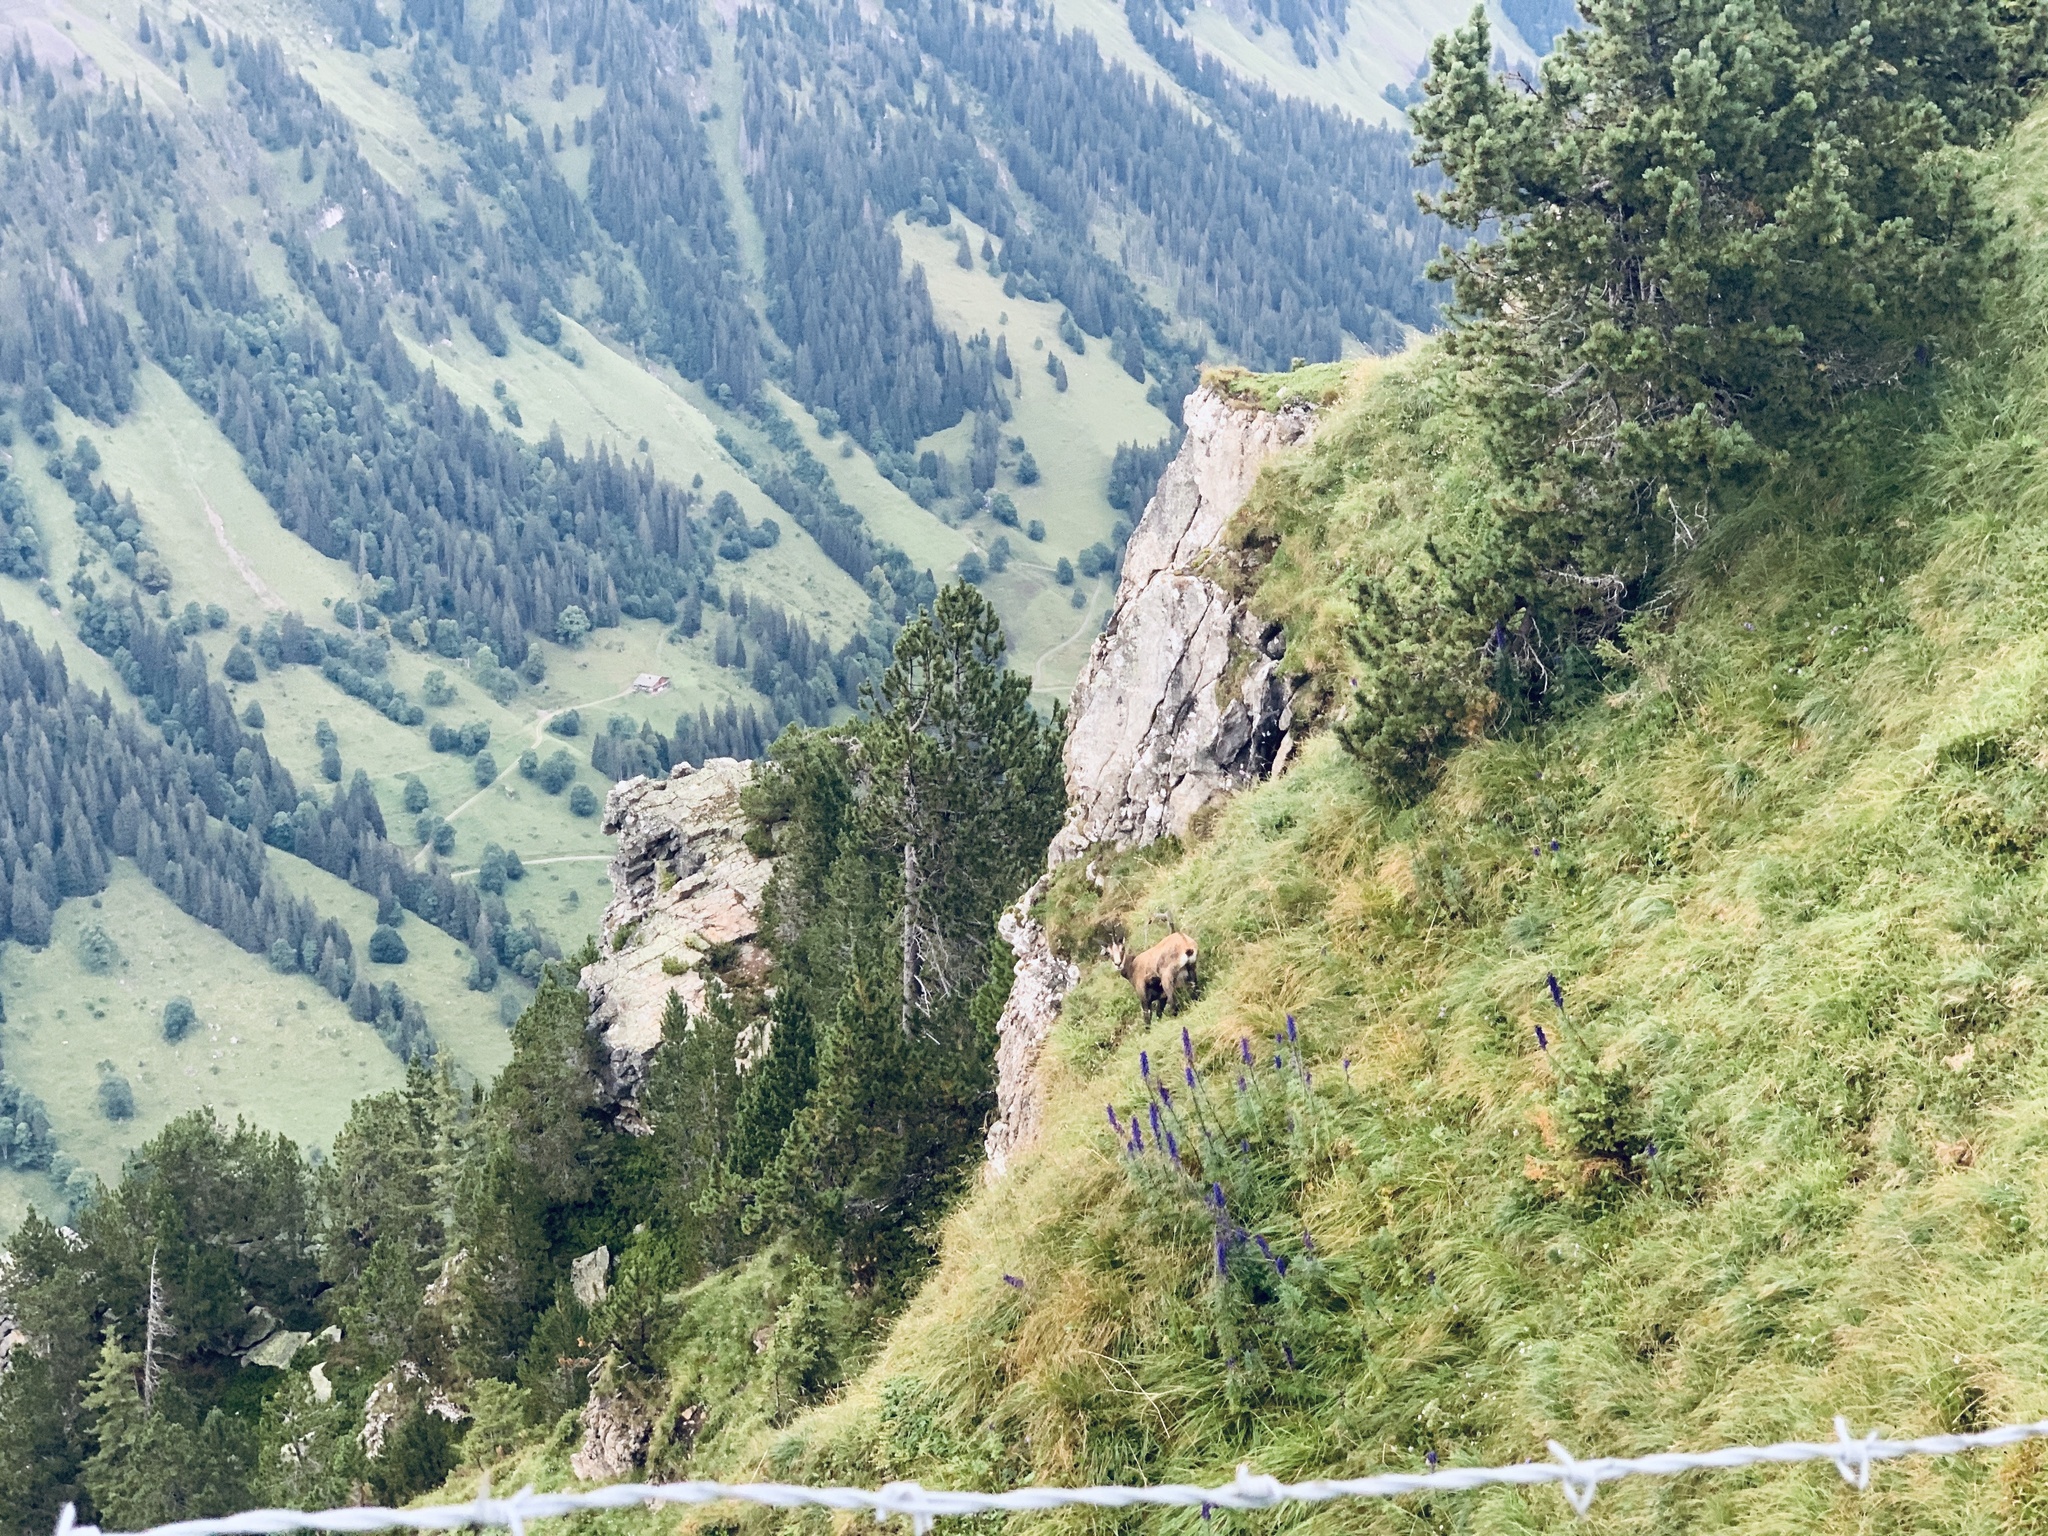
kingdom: Animalia
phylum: Chordata
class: Mammalia
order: Artiodactyla
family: Bovidae
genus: Rupicapra
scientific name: Rupicapra rupicapra
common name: Chamois
